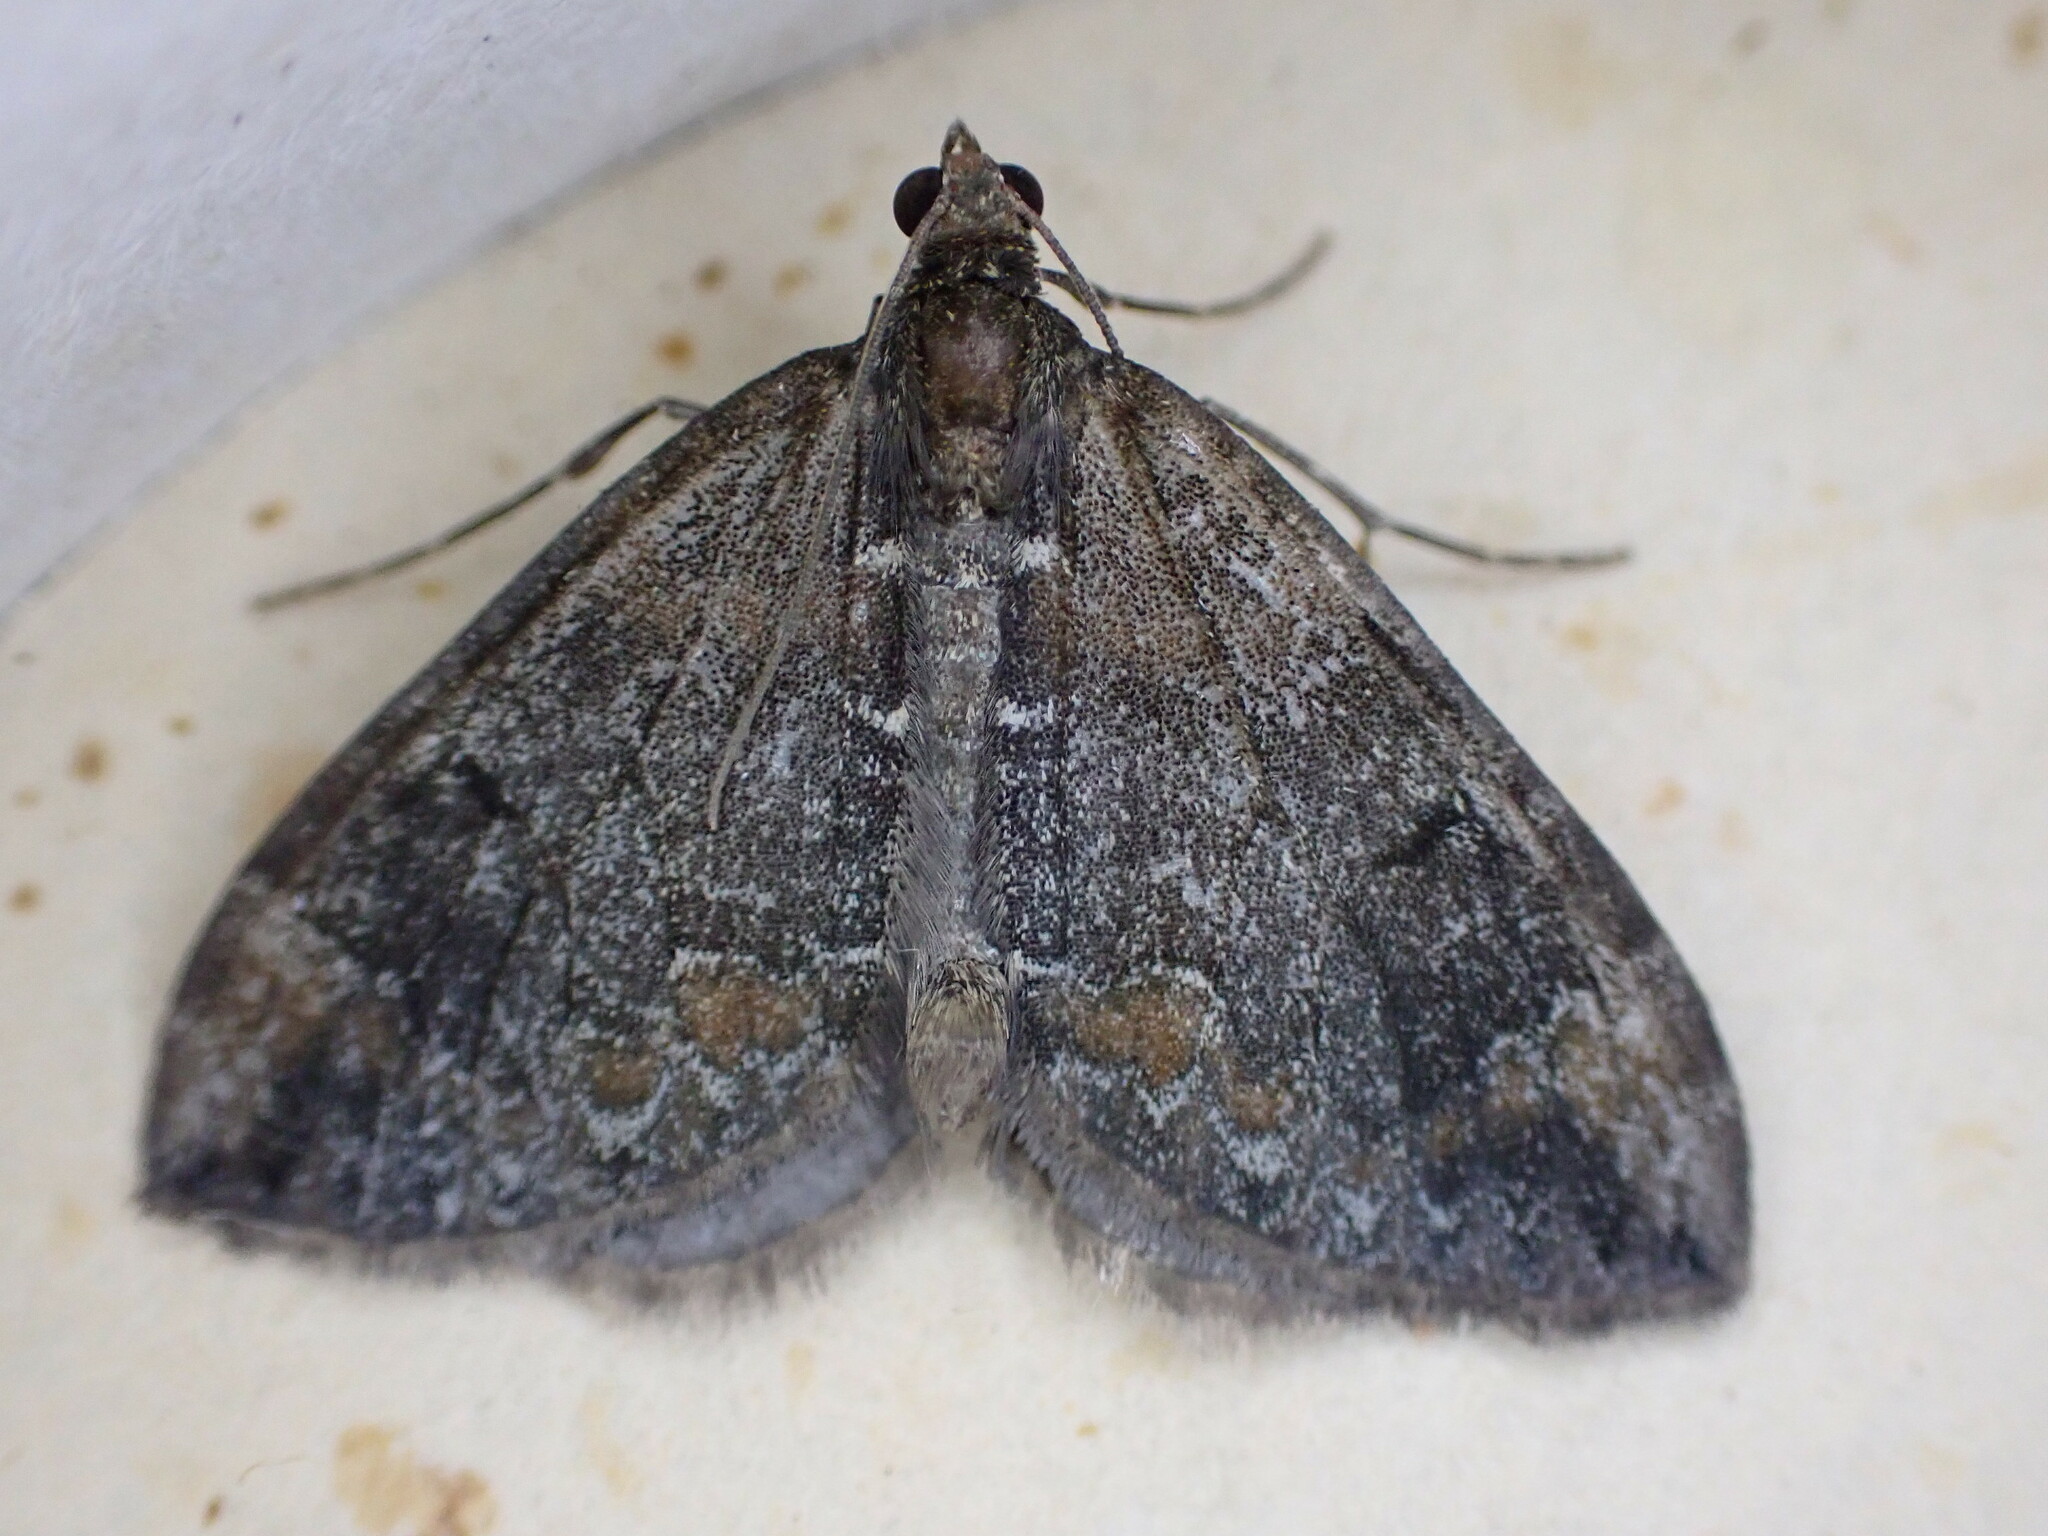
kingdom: Animalia
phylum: Arthropoda
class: Insecta
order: Lepidoptera
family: Geometridae
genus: Dysstroma
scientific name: Dysstroma truncata
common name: Common marbled carpet
